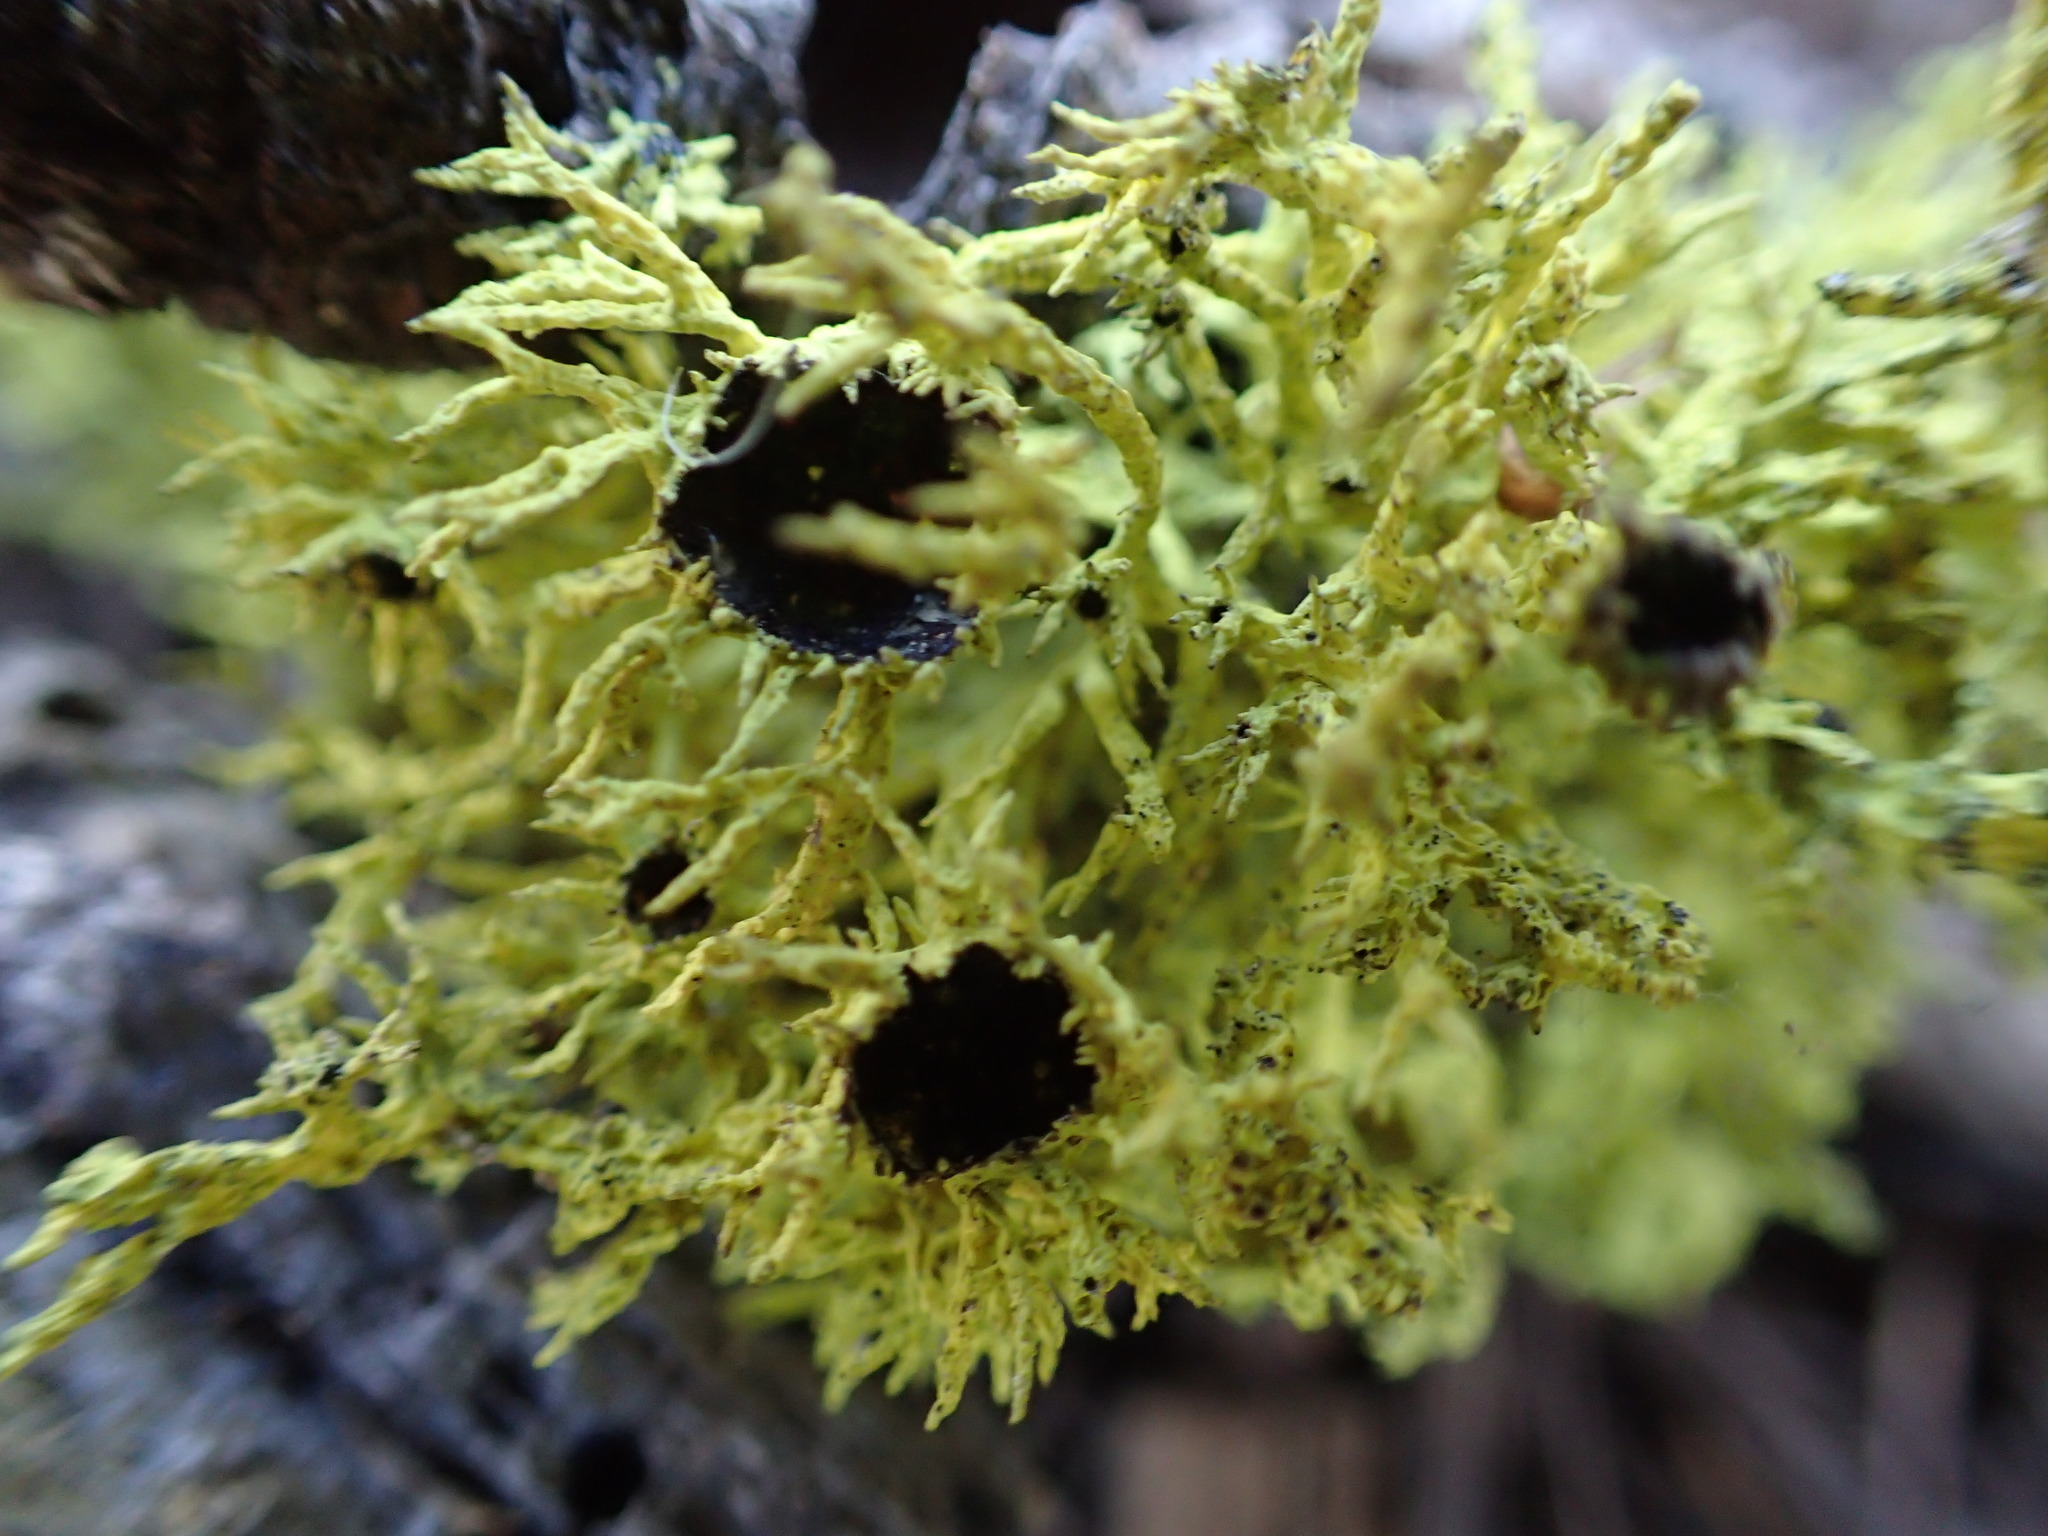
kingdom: Fungi
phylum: Ascomycota
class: Lecanoromycetes
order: Lecanorales
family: Parmeliaceae
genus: Letharia
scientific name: Letharia columbiana
